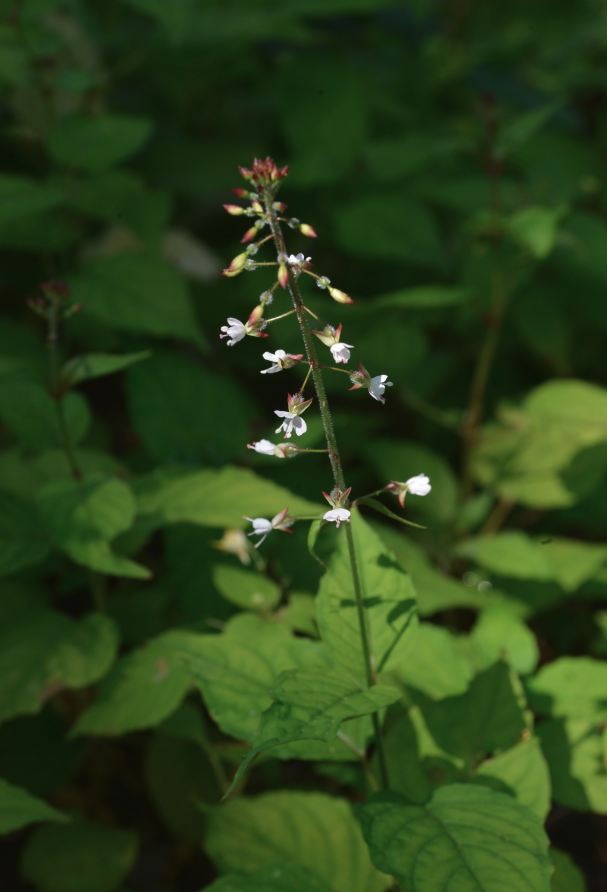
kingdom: Plantae
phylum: Tracheophyta
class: Magnoliopsida
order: Myrtales
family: Onagraceae
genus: Circaea
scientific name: Circaea lutetiana
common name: Enchanter's-nightshade
